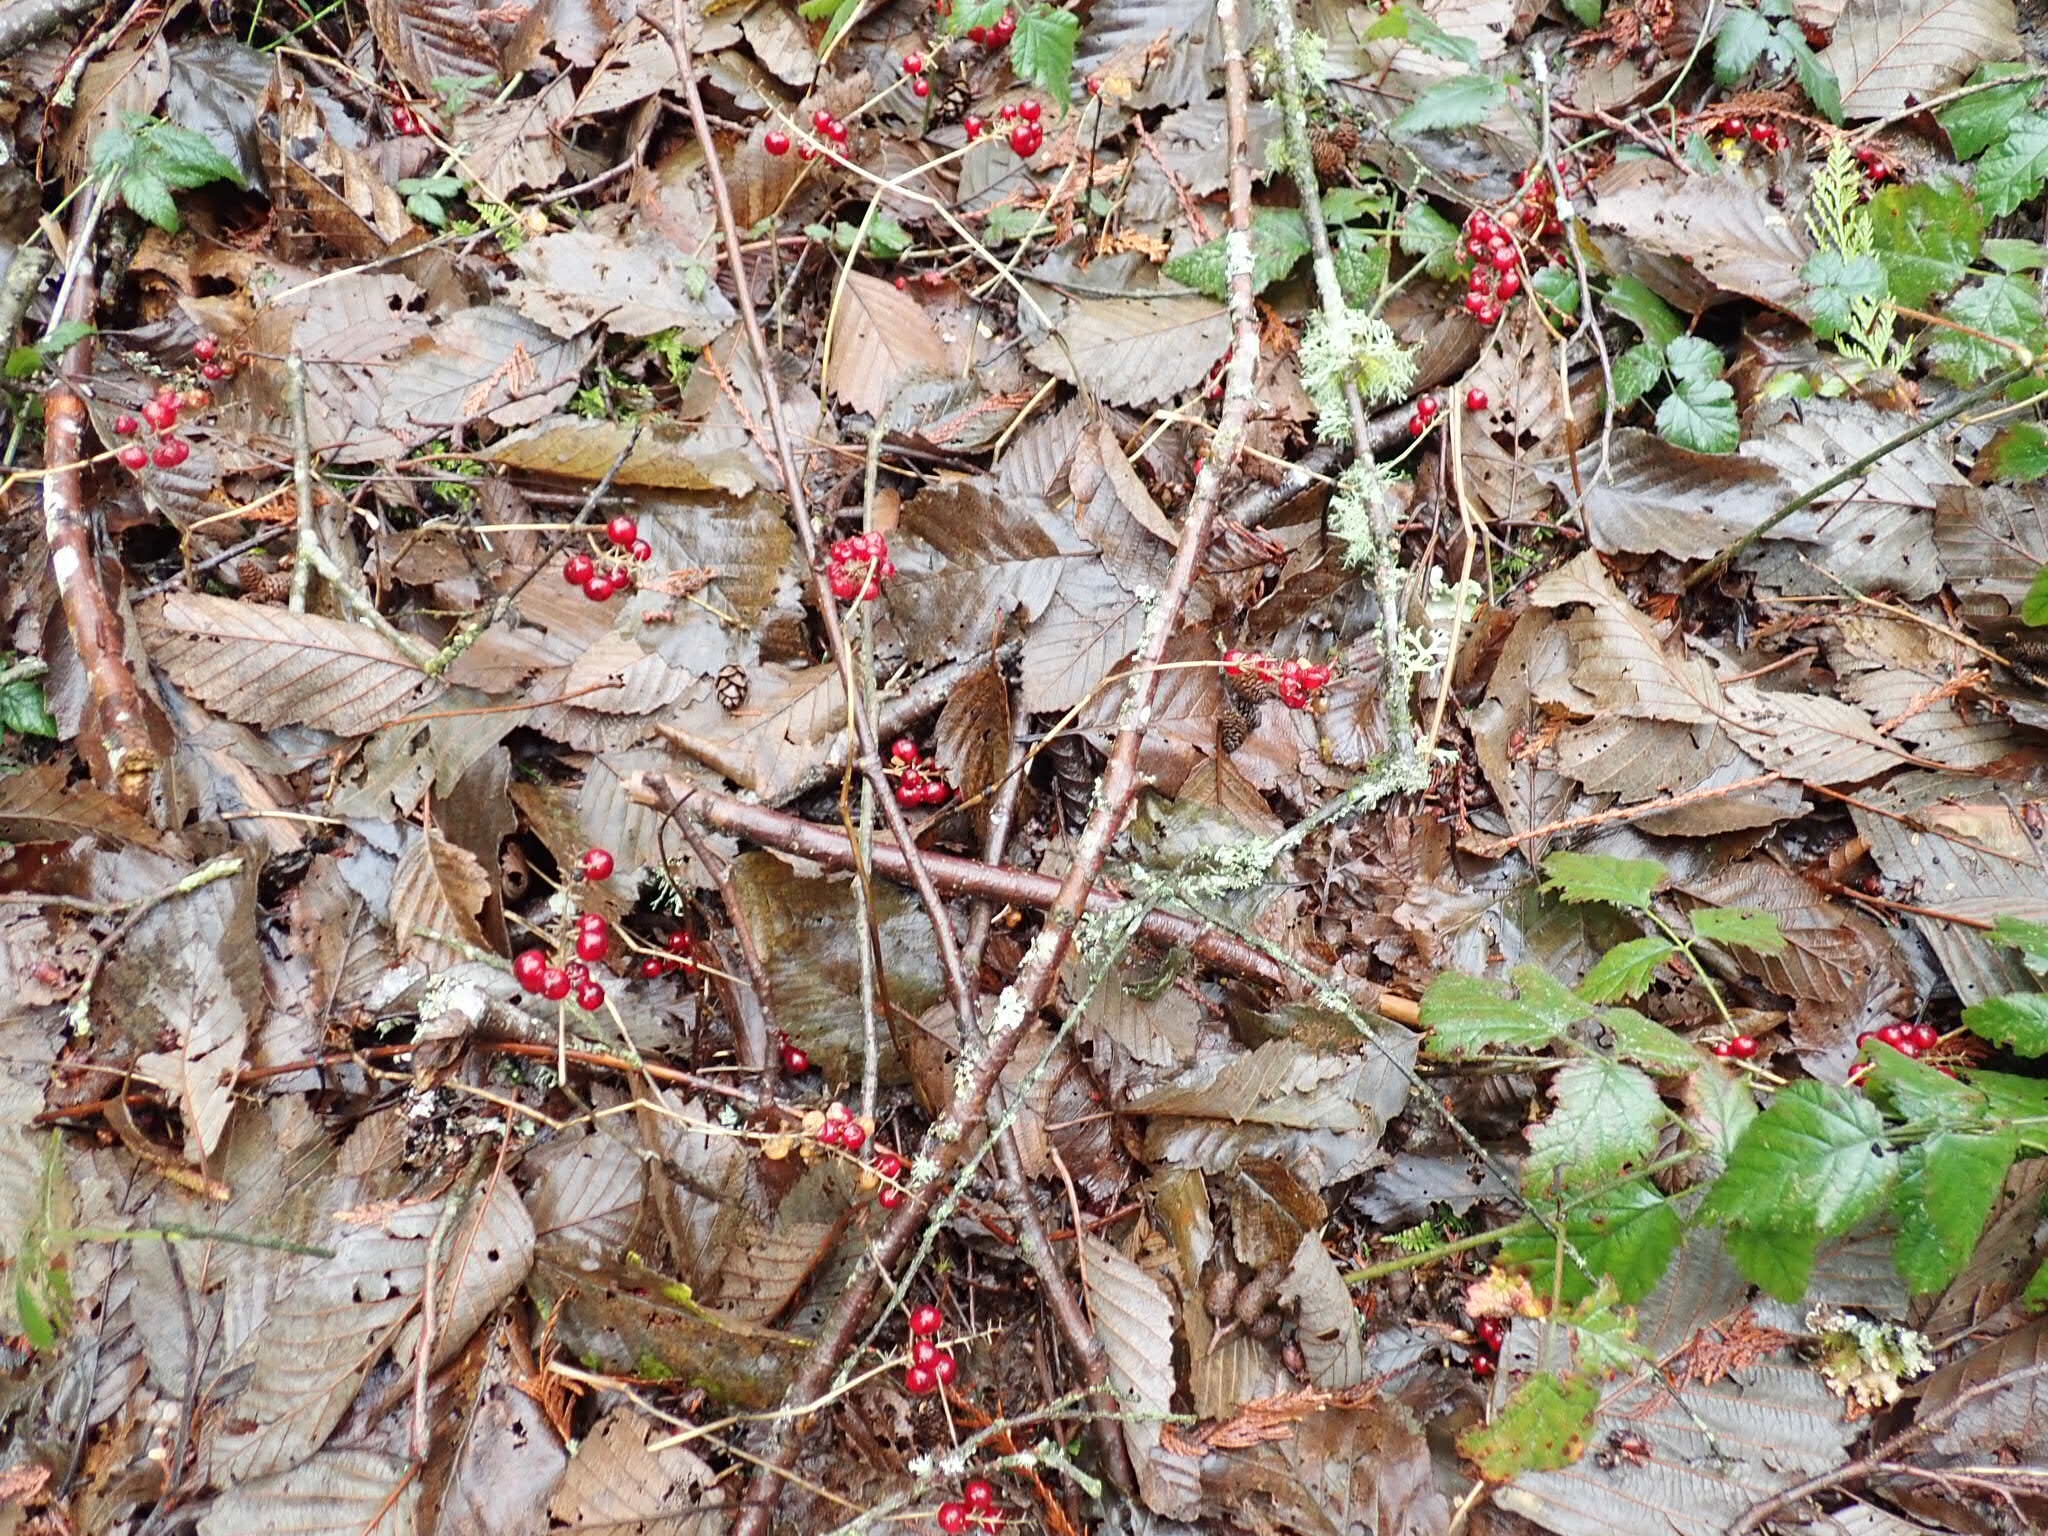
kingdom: Plantae
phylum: Tracheophyta
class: Liliopsida
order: Asparagales
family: Asparagaceae
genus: Maianthemum
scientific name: Maianthemum dilatatum
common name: False lily-of-the-valley
